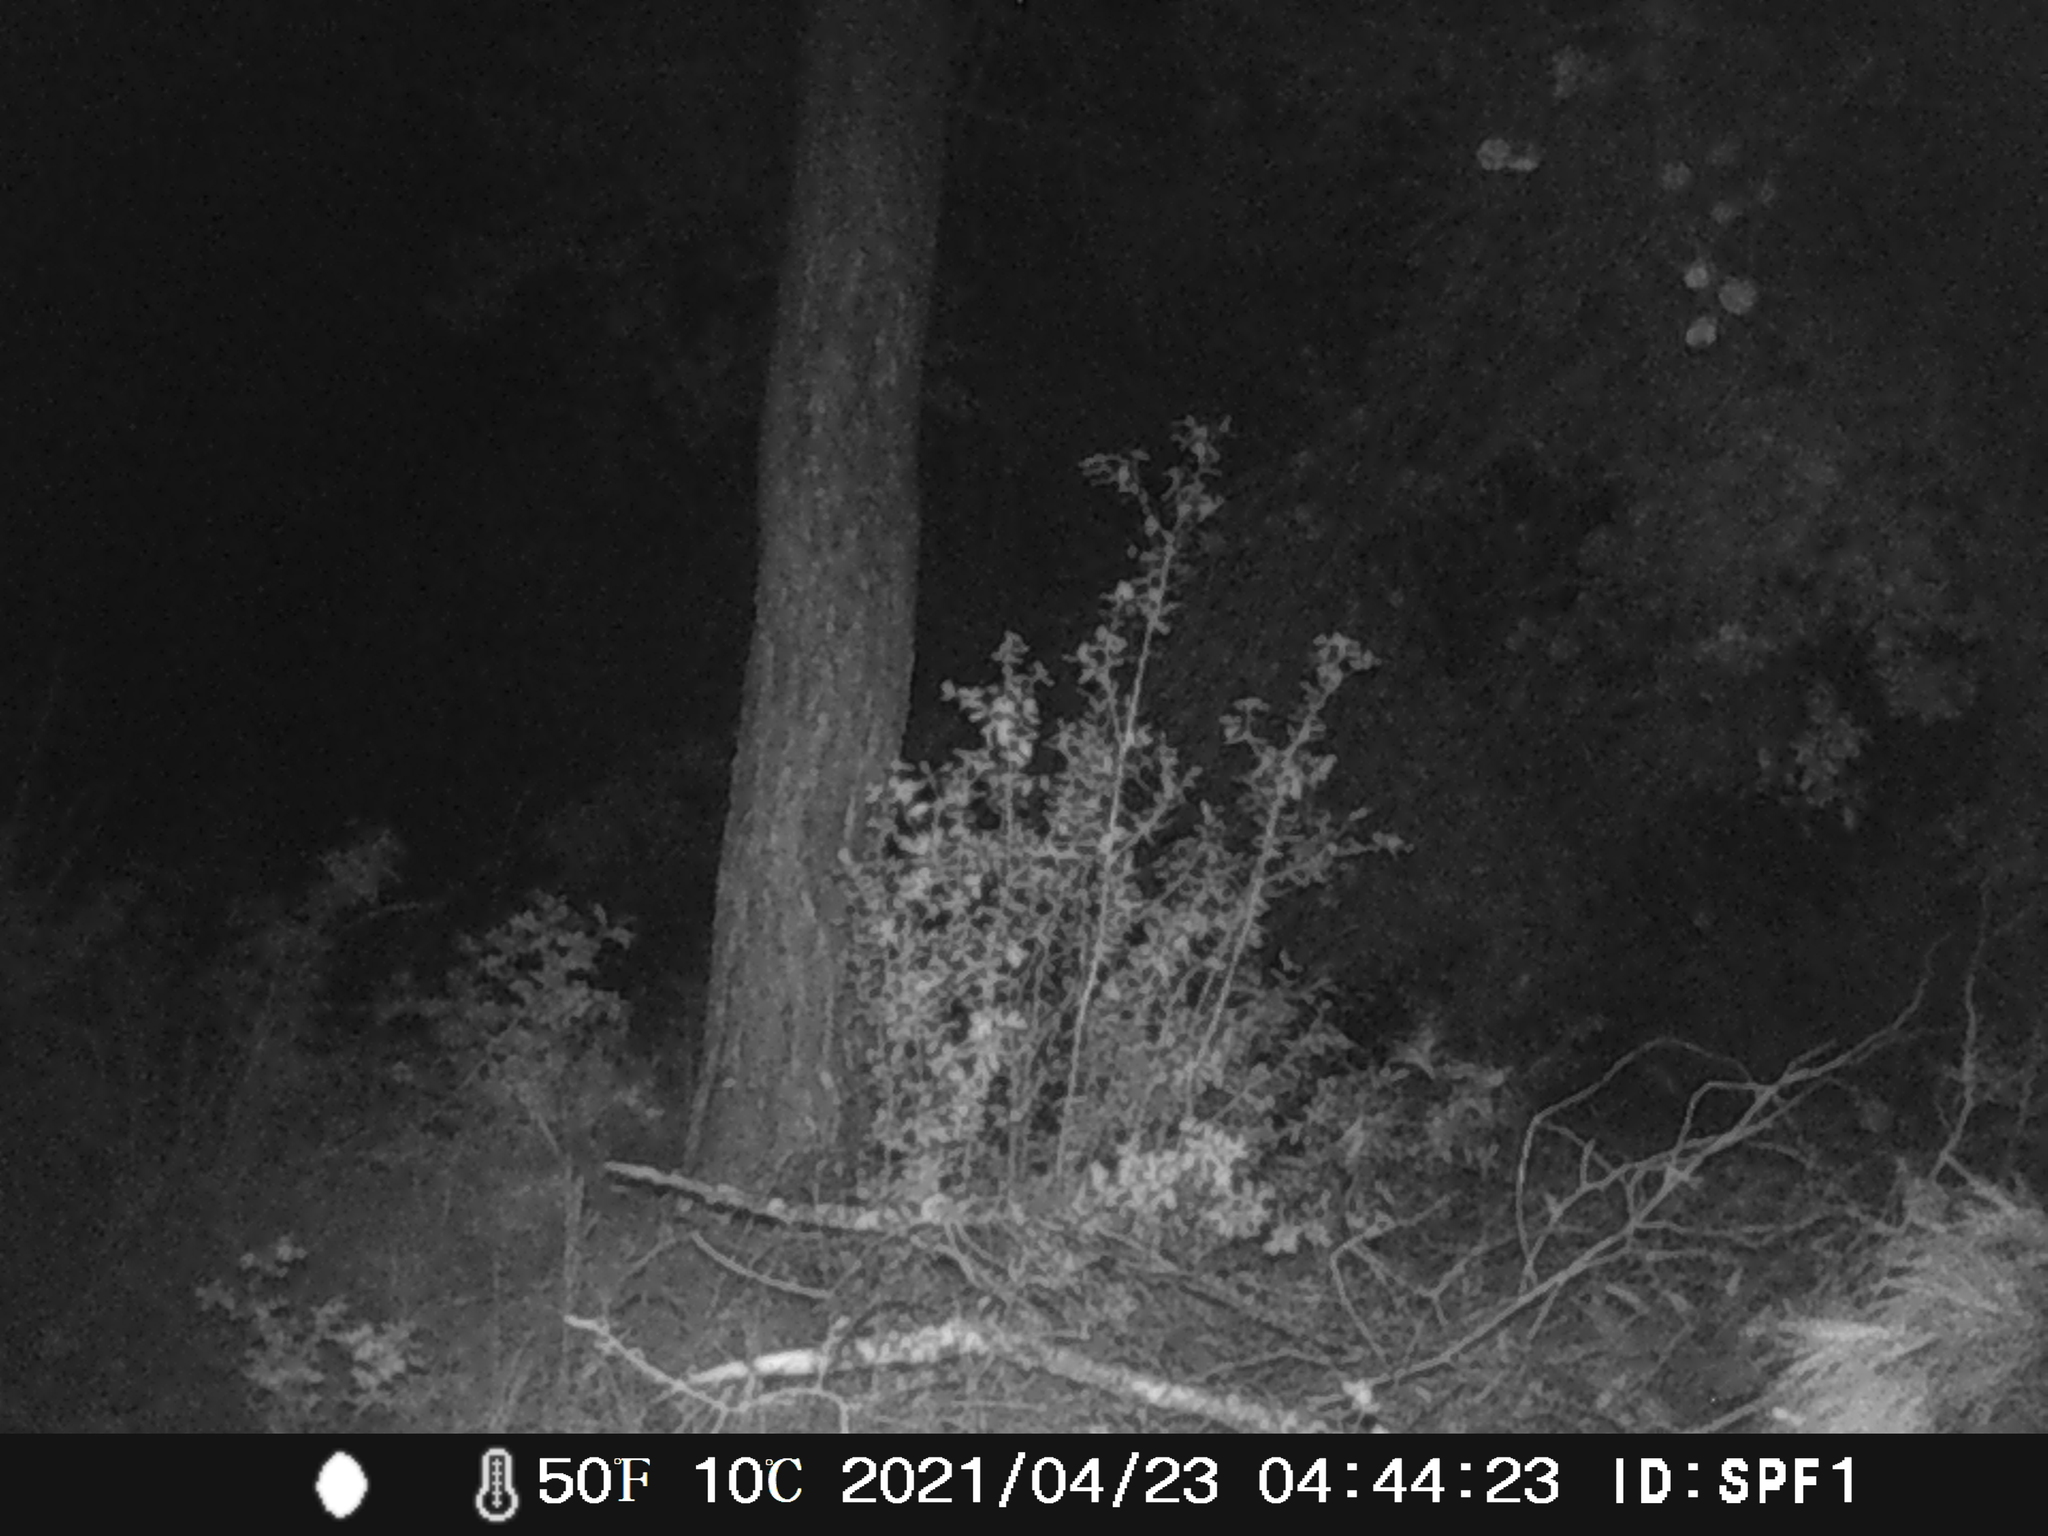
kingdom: Animalia
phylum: Chordata
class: Mammalia
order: Artiodactyla
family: Suidae
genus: Sus
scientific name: Sus scrofa
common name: Wild boar
